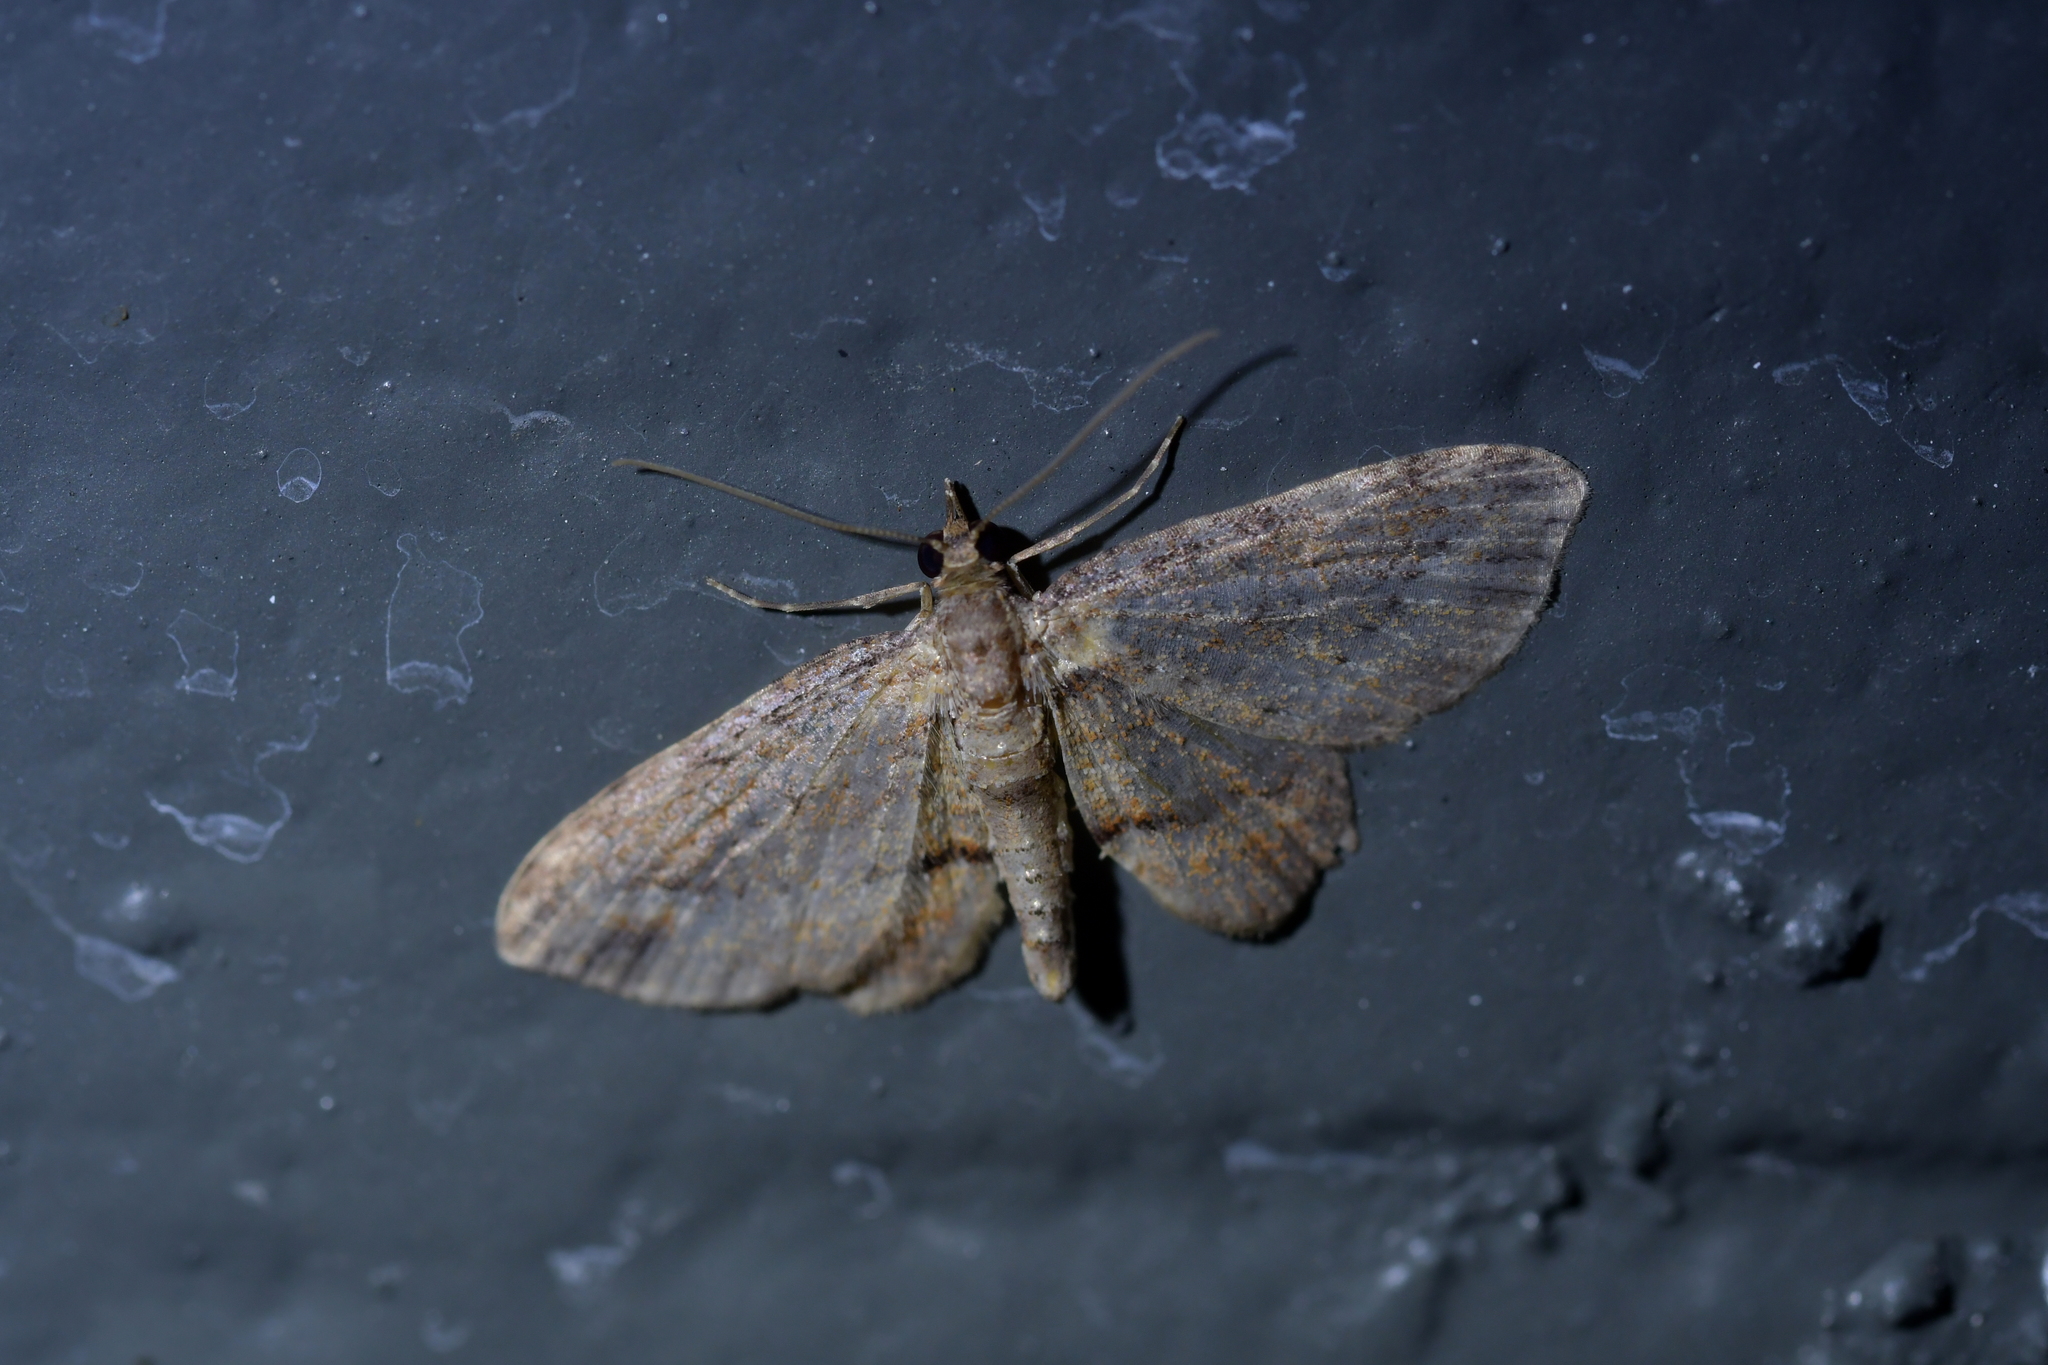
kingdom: Animalia
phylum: Arthropoda
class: Insecta
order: Lepidoptera
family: Geometridae
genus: Chloroclystis
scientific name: Chloroclystis filata
